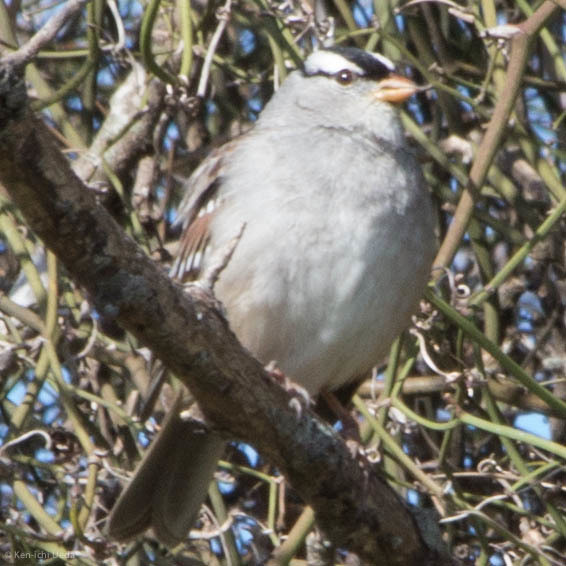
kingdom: Animalia
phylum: Chordata
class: Aves
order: Passeriformes
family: Passerellidae
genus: Zonotrichia
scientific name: Zonotrichia leucophrys
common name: White-crowned sparrow
